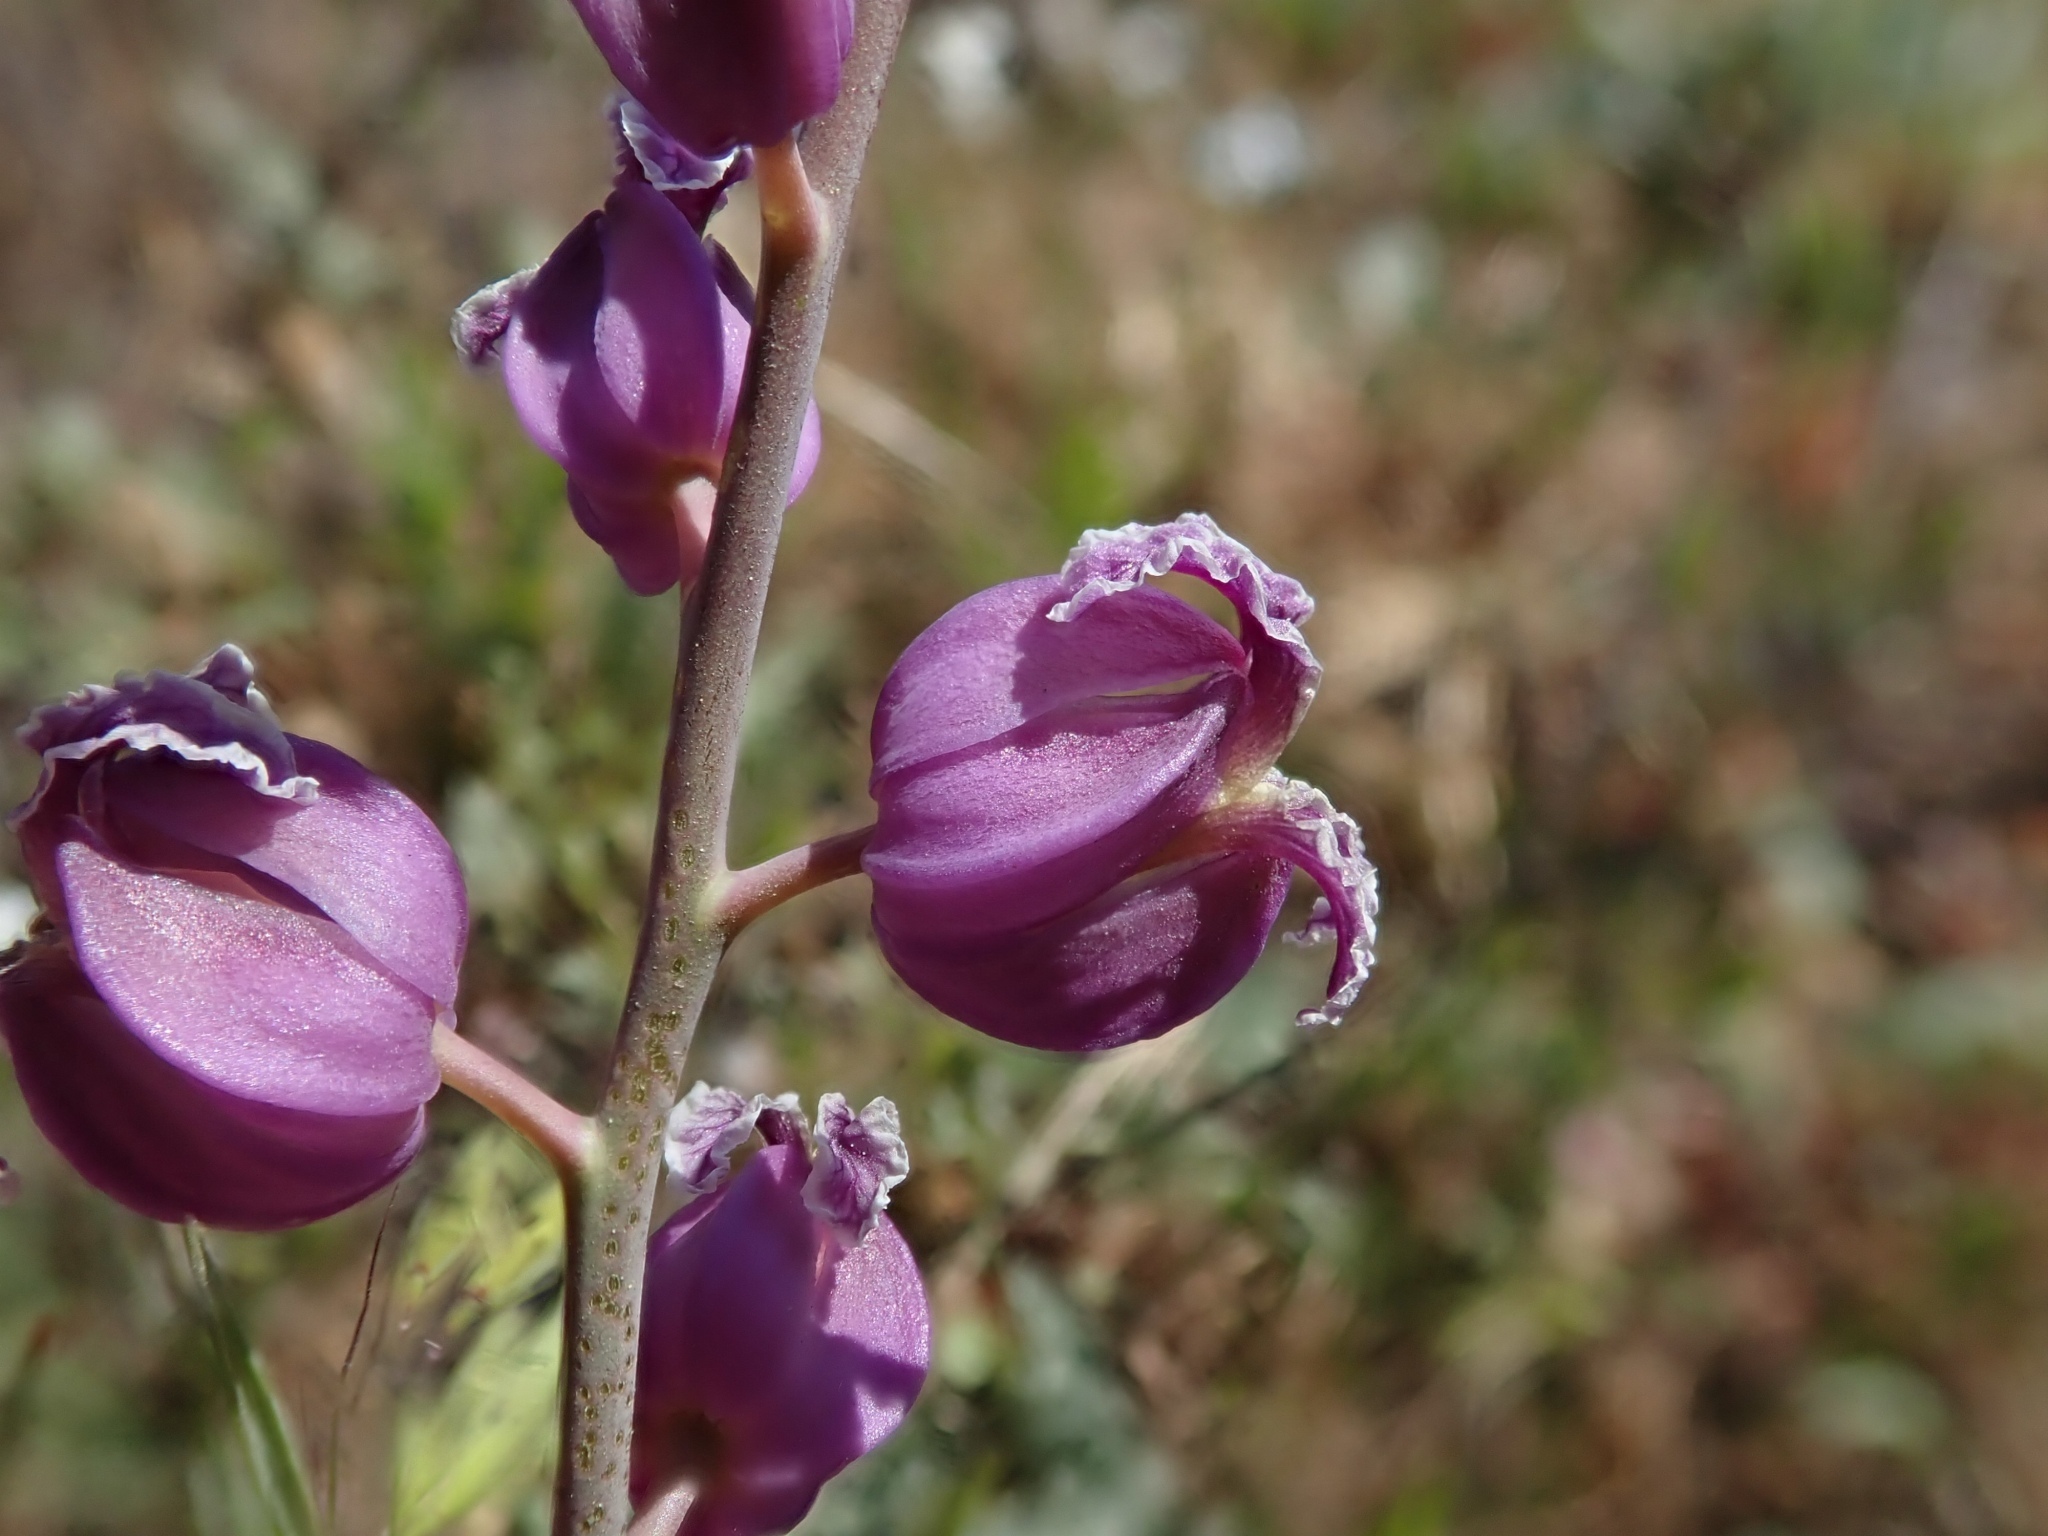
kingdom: Plantae
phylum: Tracheophyta
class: Magnoliopsida
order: Brassicales
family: Brassicaceae
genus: Streptanthus
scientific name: Streptanthus glandulosus
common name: Jewel-flower
